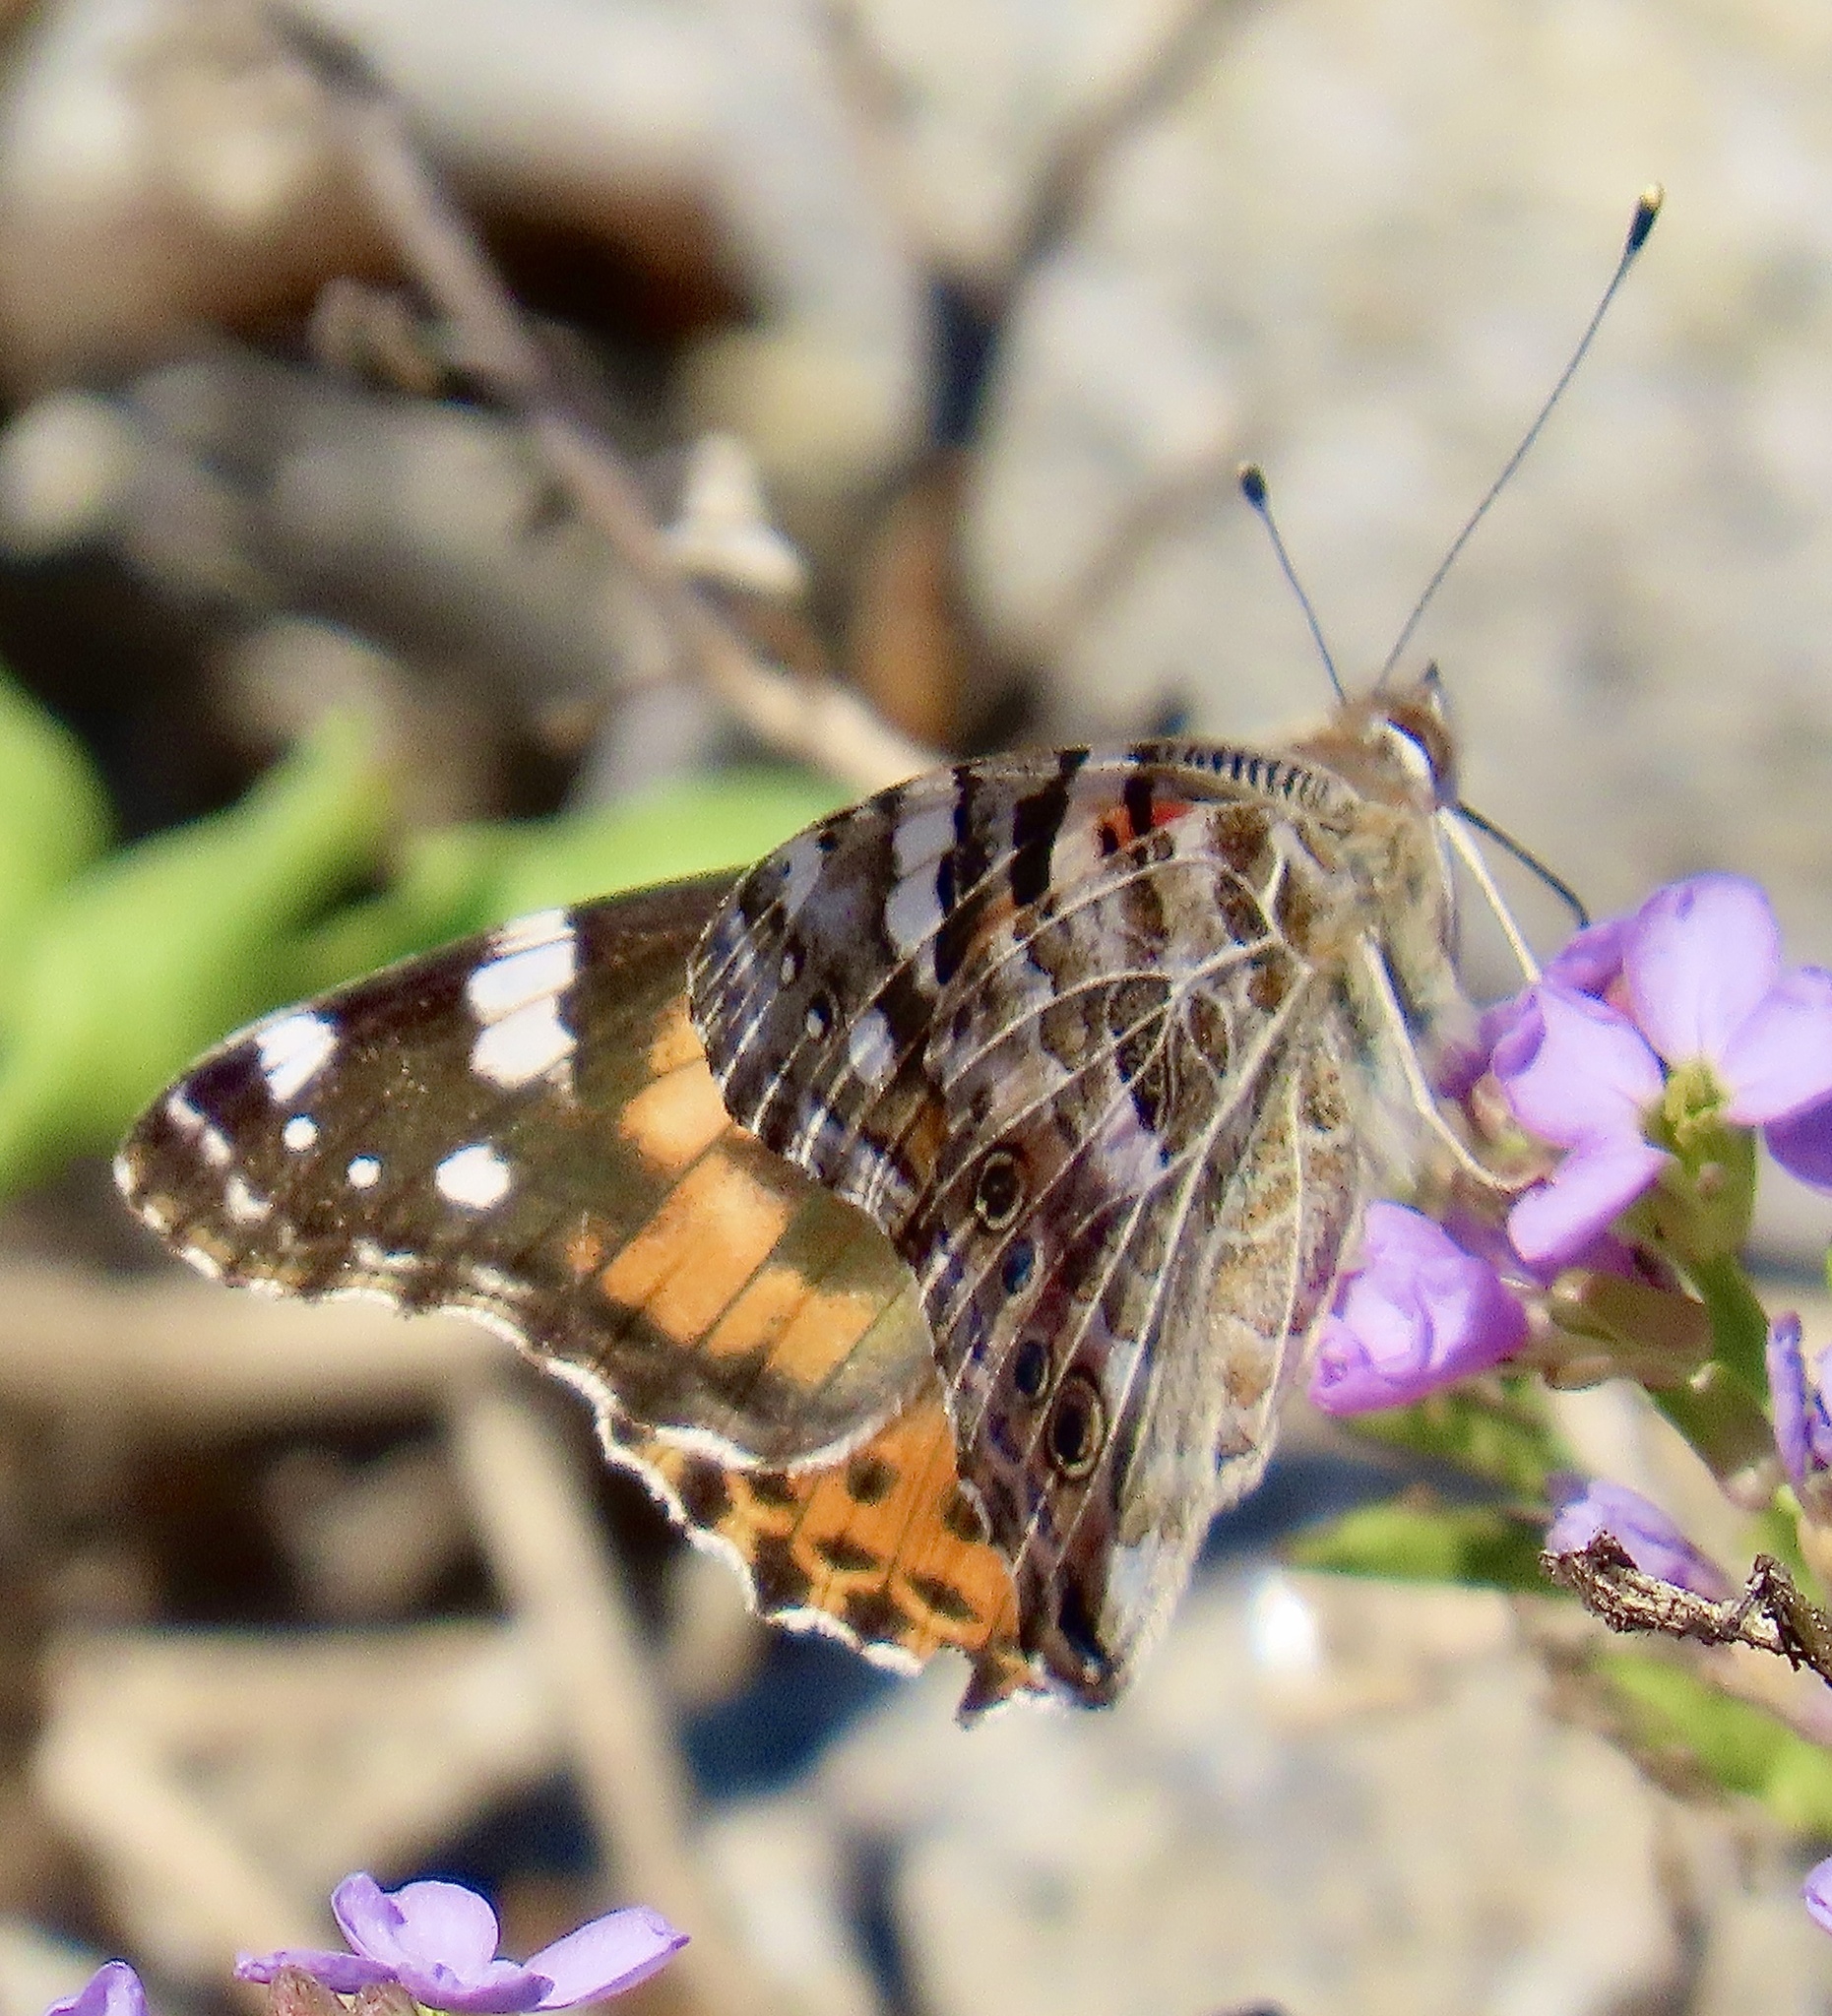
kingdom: Animalia
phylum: Arthropoda
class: Insecta
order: Lepidoptera
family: Nymphalidae
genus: Vanessa
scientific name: Vanessa cardui
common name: Painted lady
